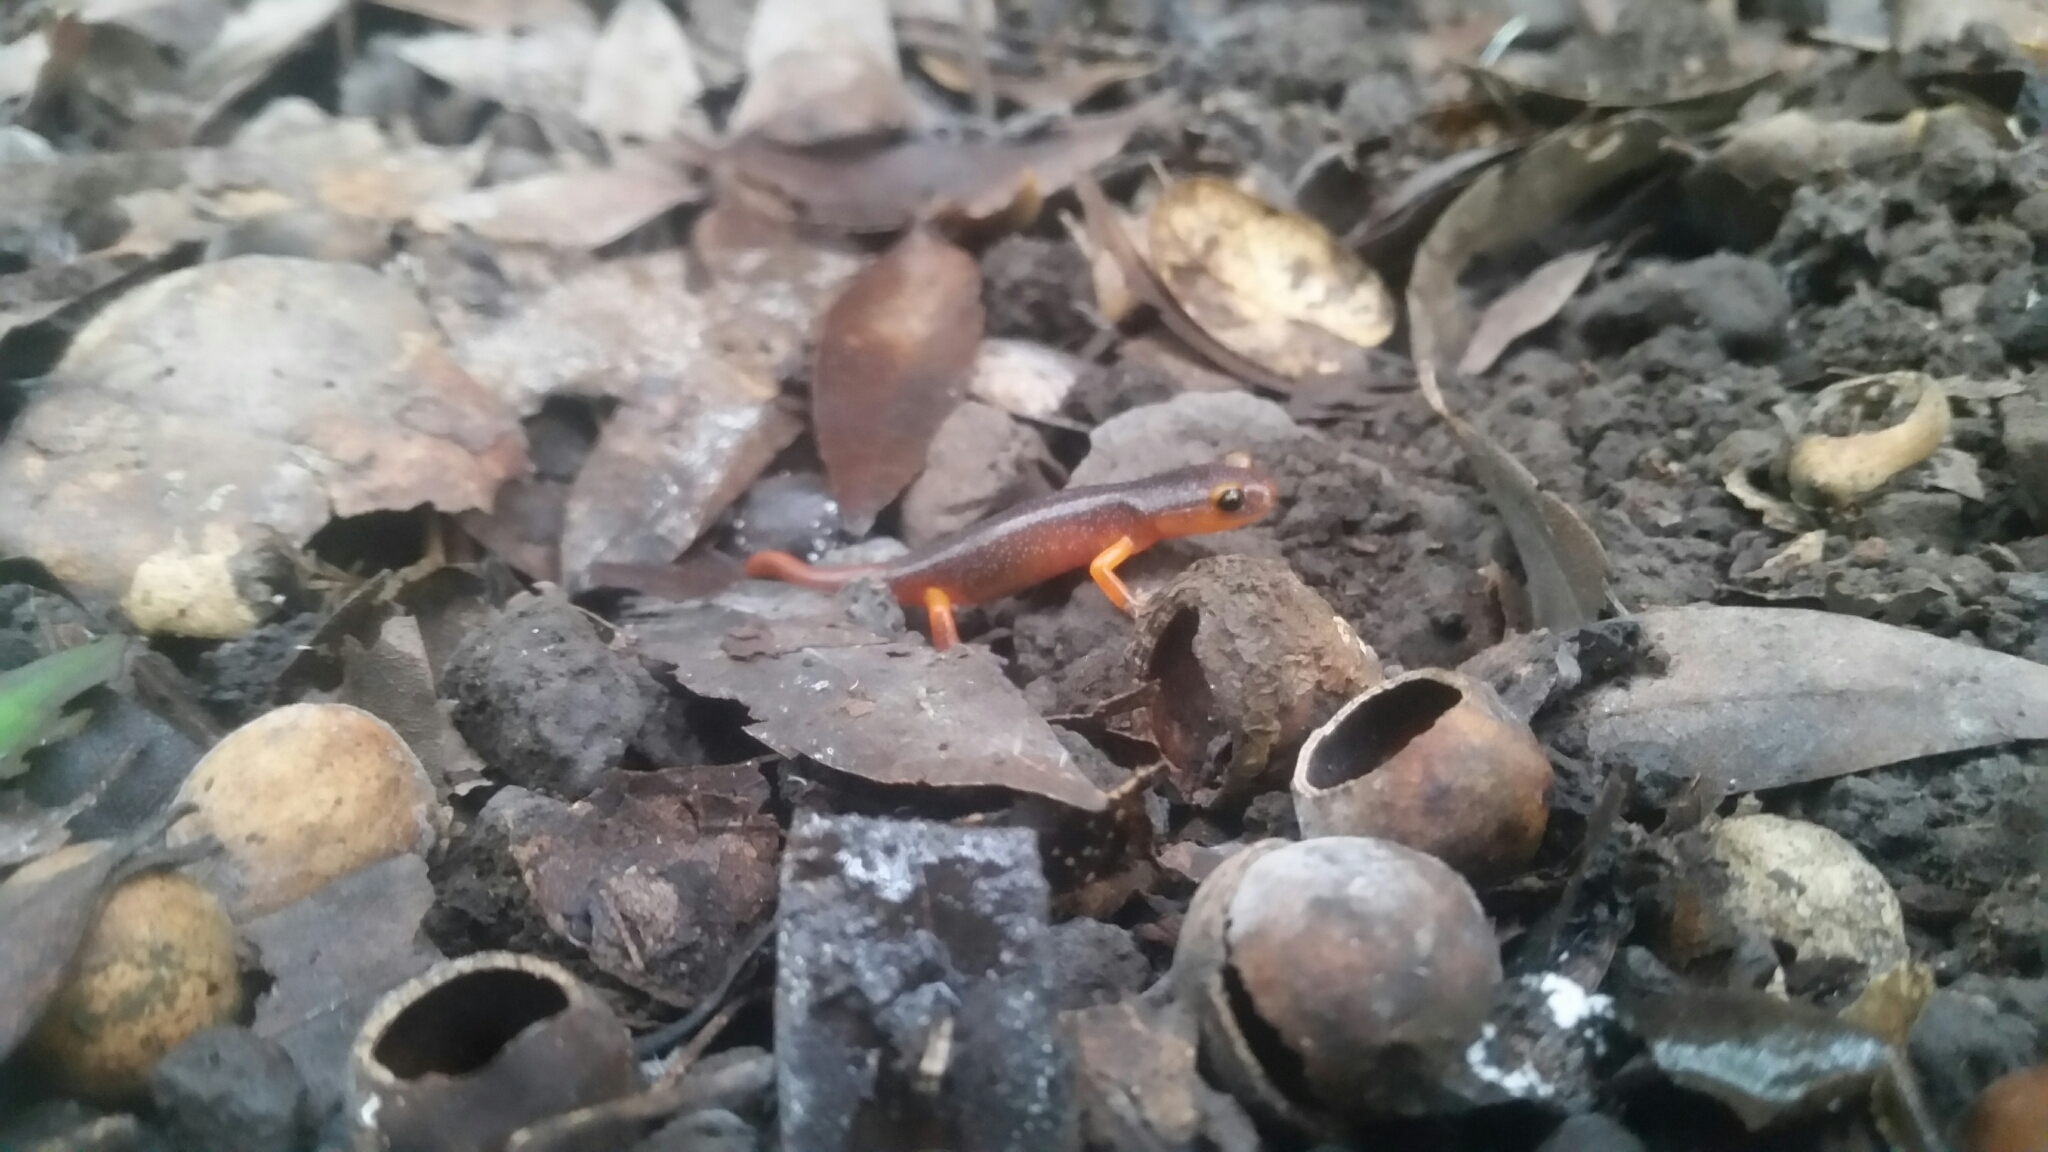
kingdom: Animalia
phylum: Chordata
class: Amphibia
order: Caudata
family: Plethodontidae
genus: Ensatina
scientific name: Ensatina eschscholtzii
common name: Ensatina
